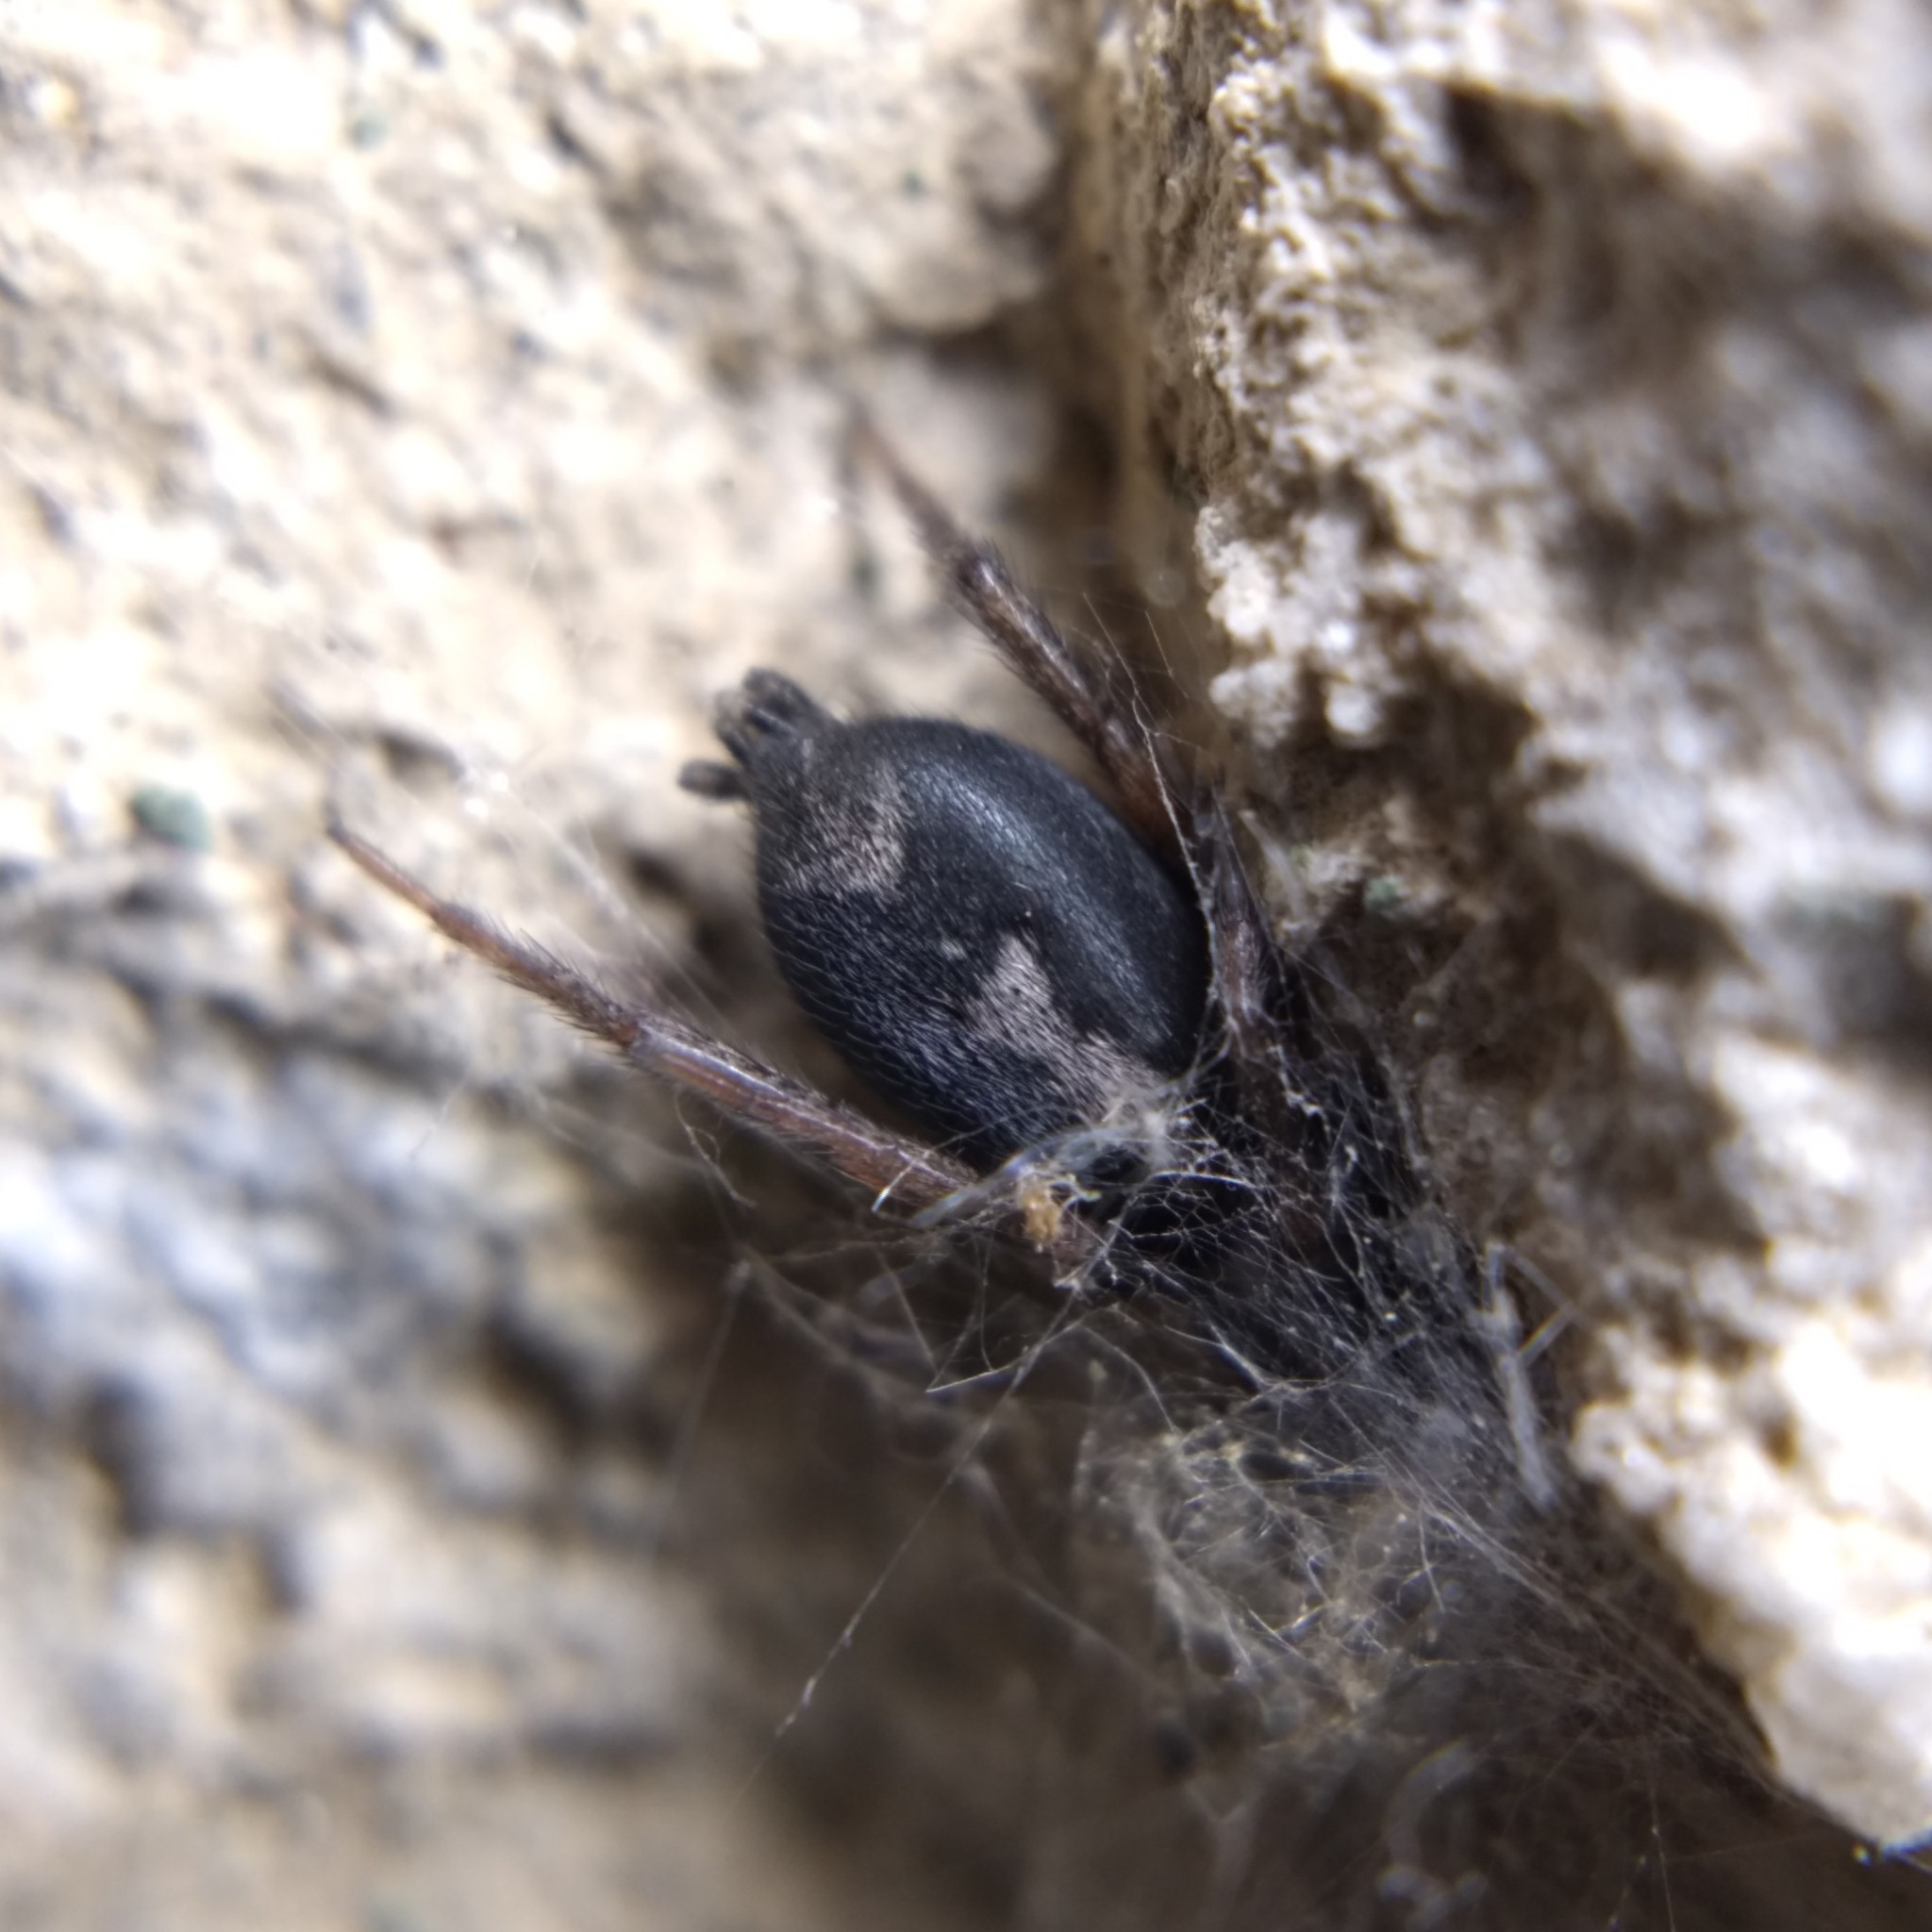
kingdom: Animalia
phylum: Arthropoda
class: Arachnida
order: Araneae
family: Gnaphosidae
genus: Herpyllus
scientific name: Herpyllus ecclesiasticus
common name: Eastern parson spider
